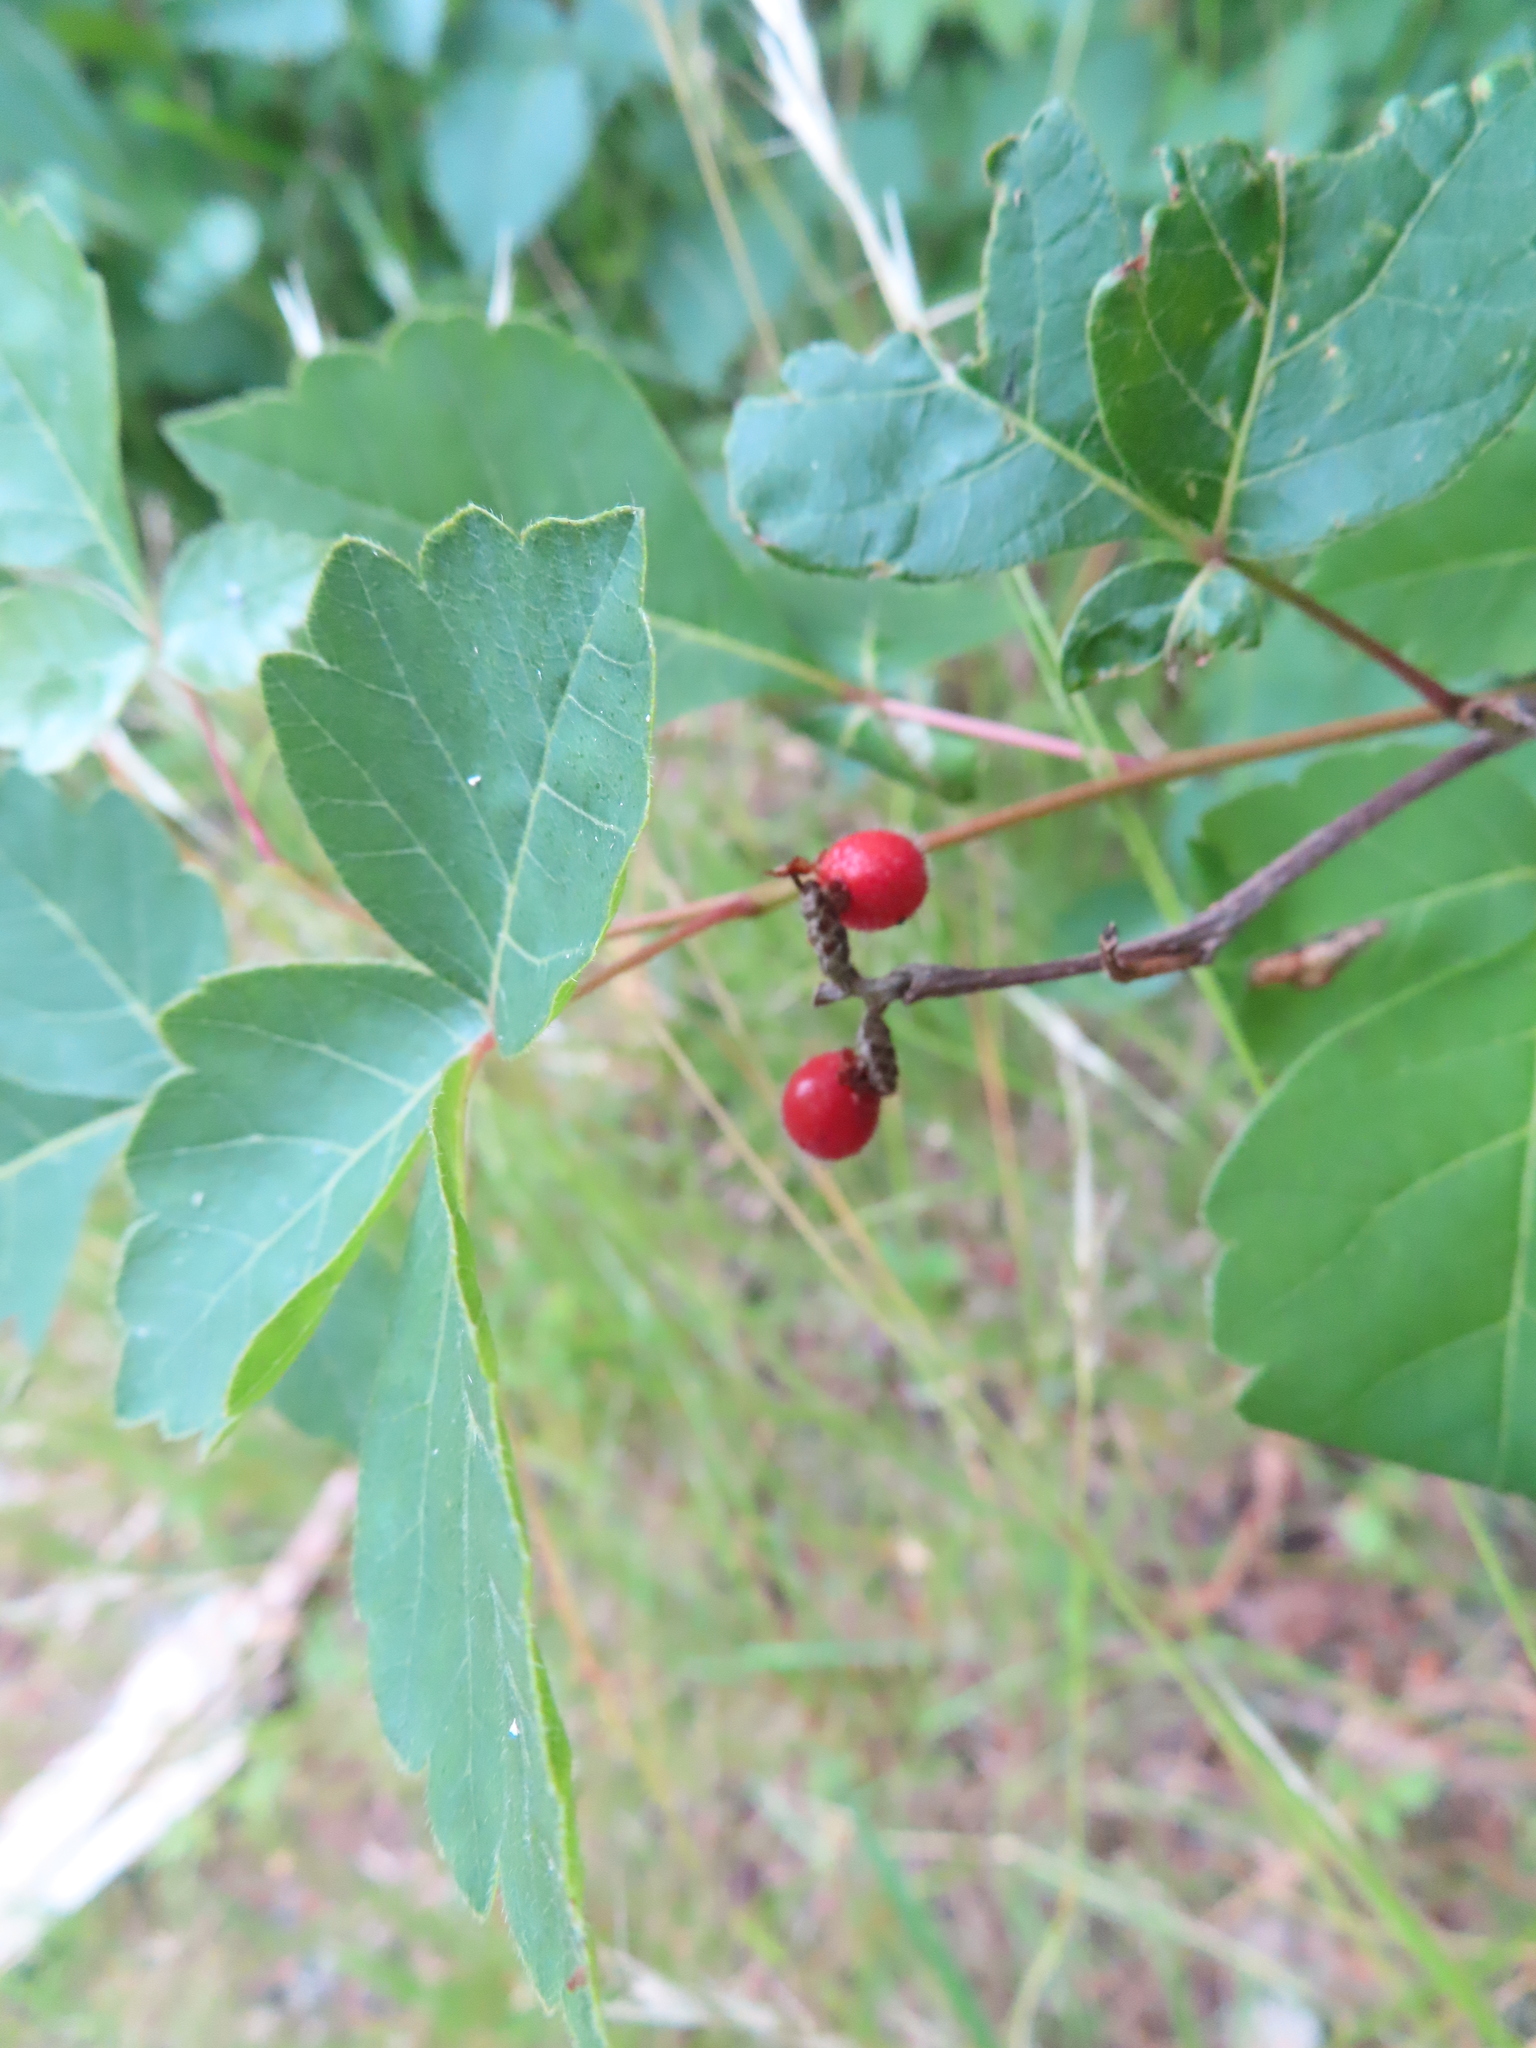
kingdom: Plantae
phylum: Tracheophyta
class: Magnoliopsida
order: Sapindales
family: Anacardiaceae
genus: Rhus
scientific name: Rhus aromatica
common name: Aromatic sumac
